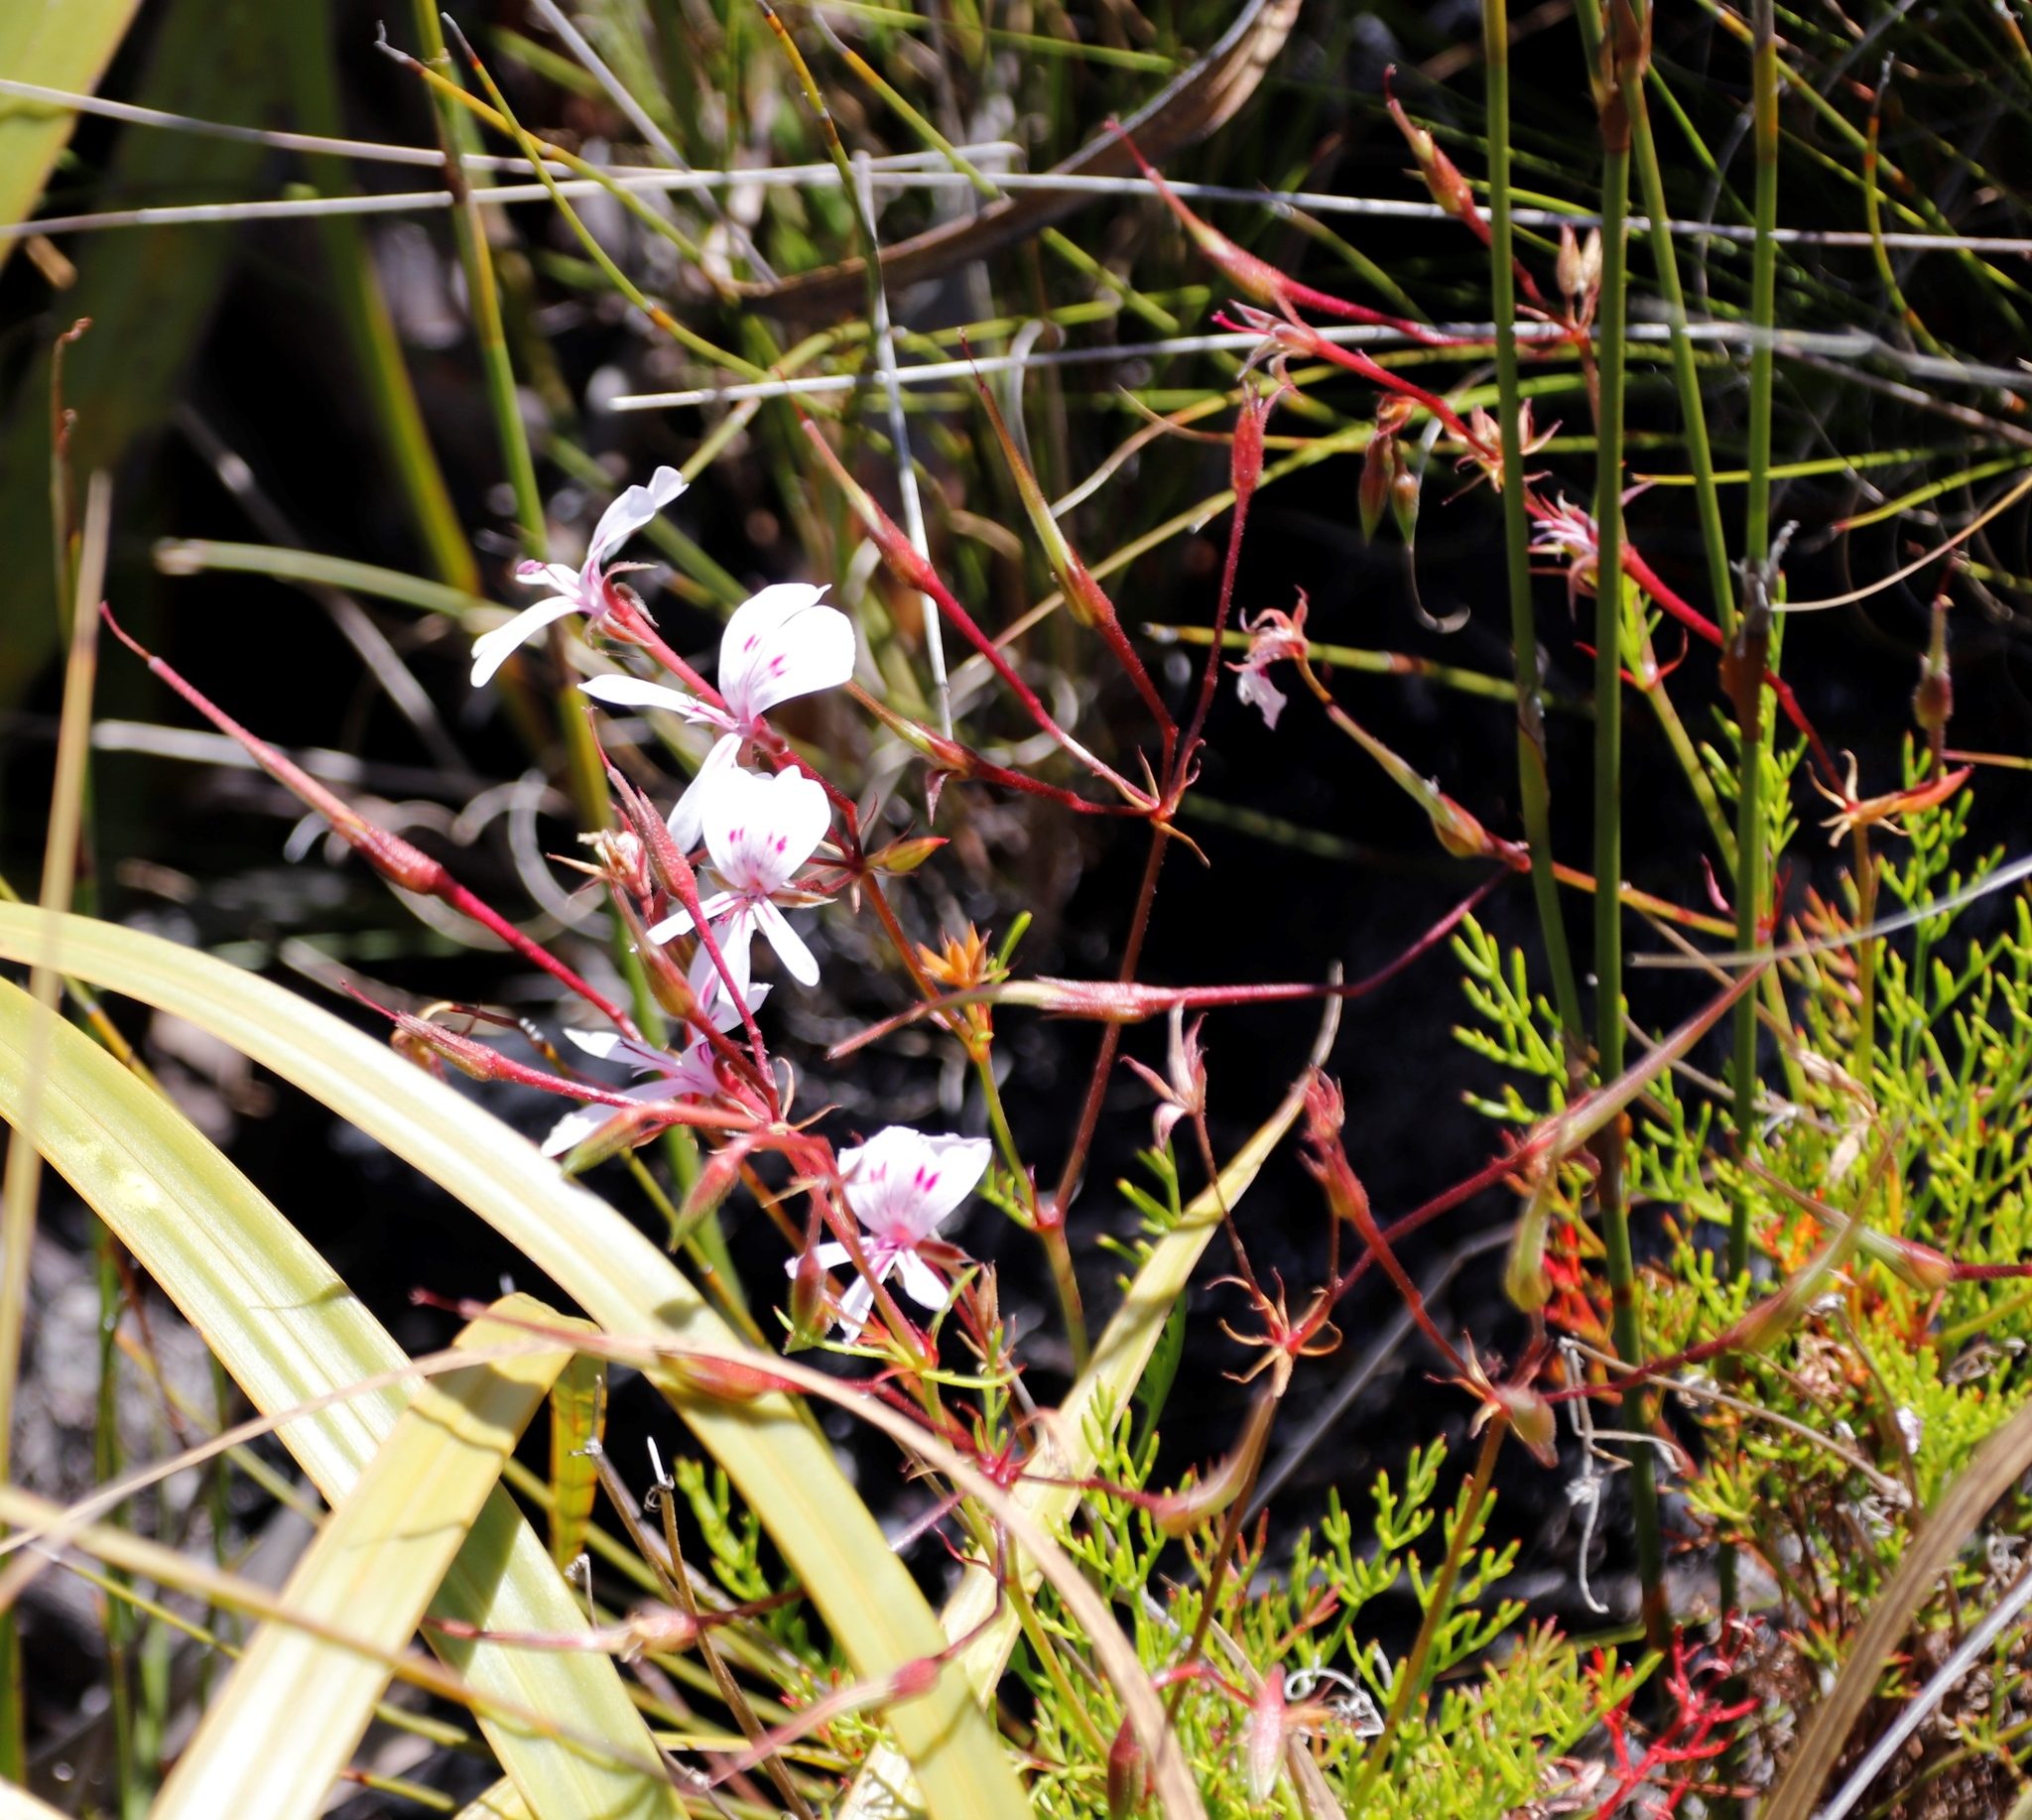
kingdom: Plantae
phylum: Tracheophyta
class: Magnoliopsida
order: Geraniales
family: Geraniaceae
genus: Pelargonium
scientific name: Pelargonium artemisiifolium
